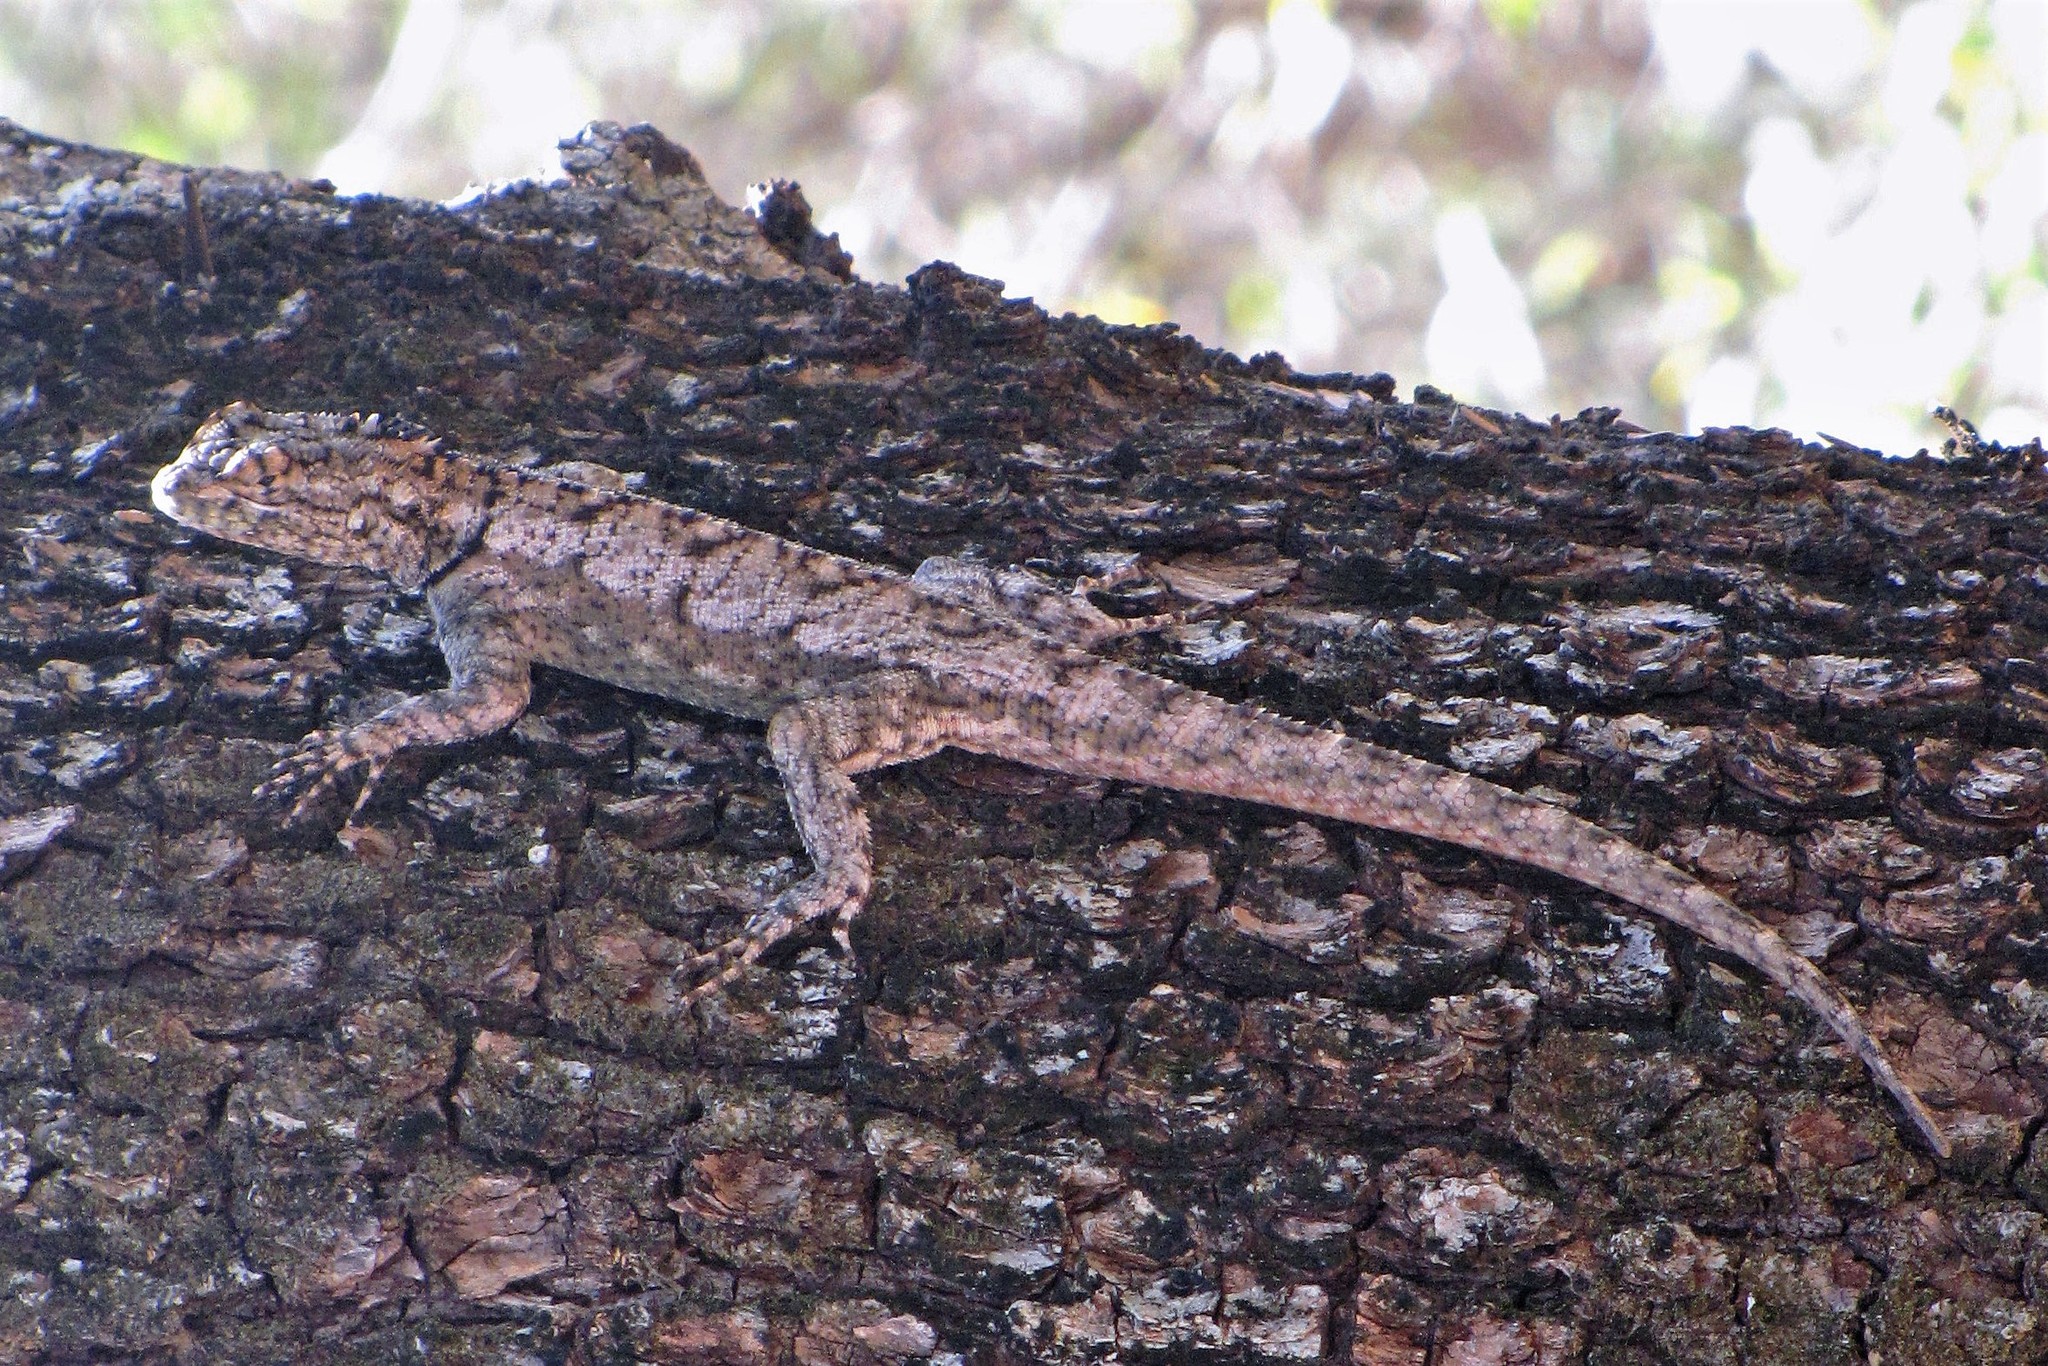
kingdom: Animalia
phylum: Chordata
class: Squamata
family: Tropiduridae
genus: Tropidurus
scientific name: Tropidurus spinulosus
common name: Spiny lava lizard
